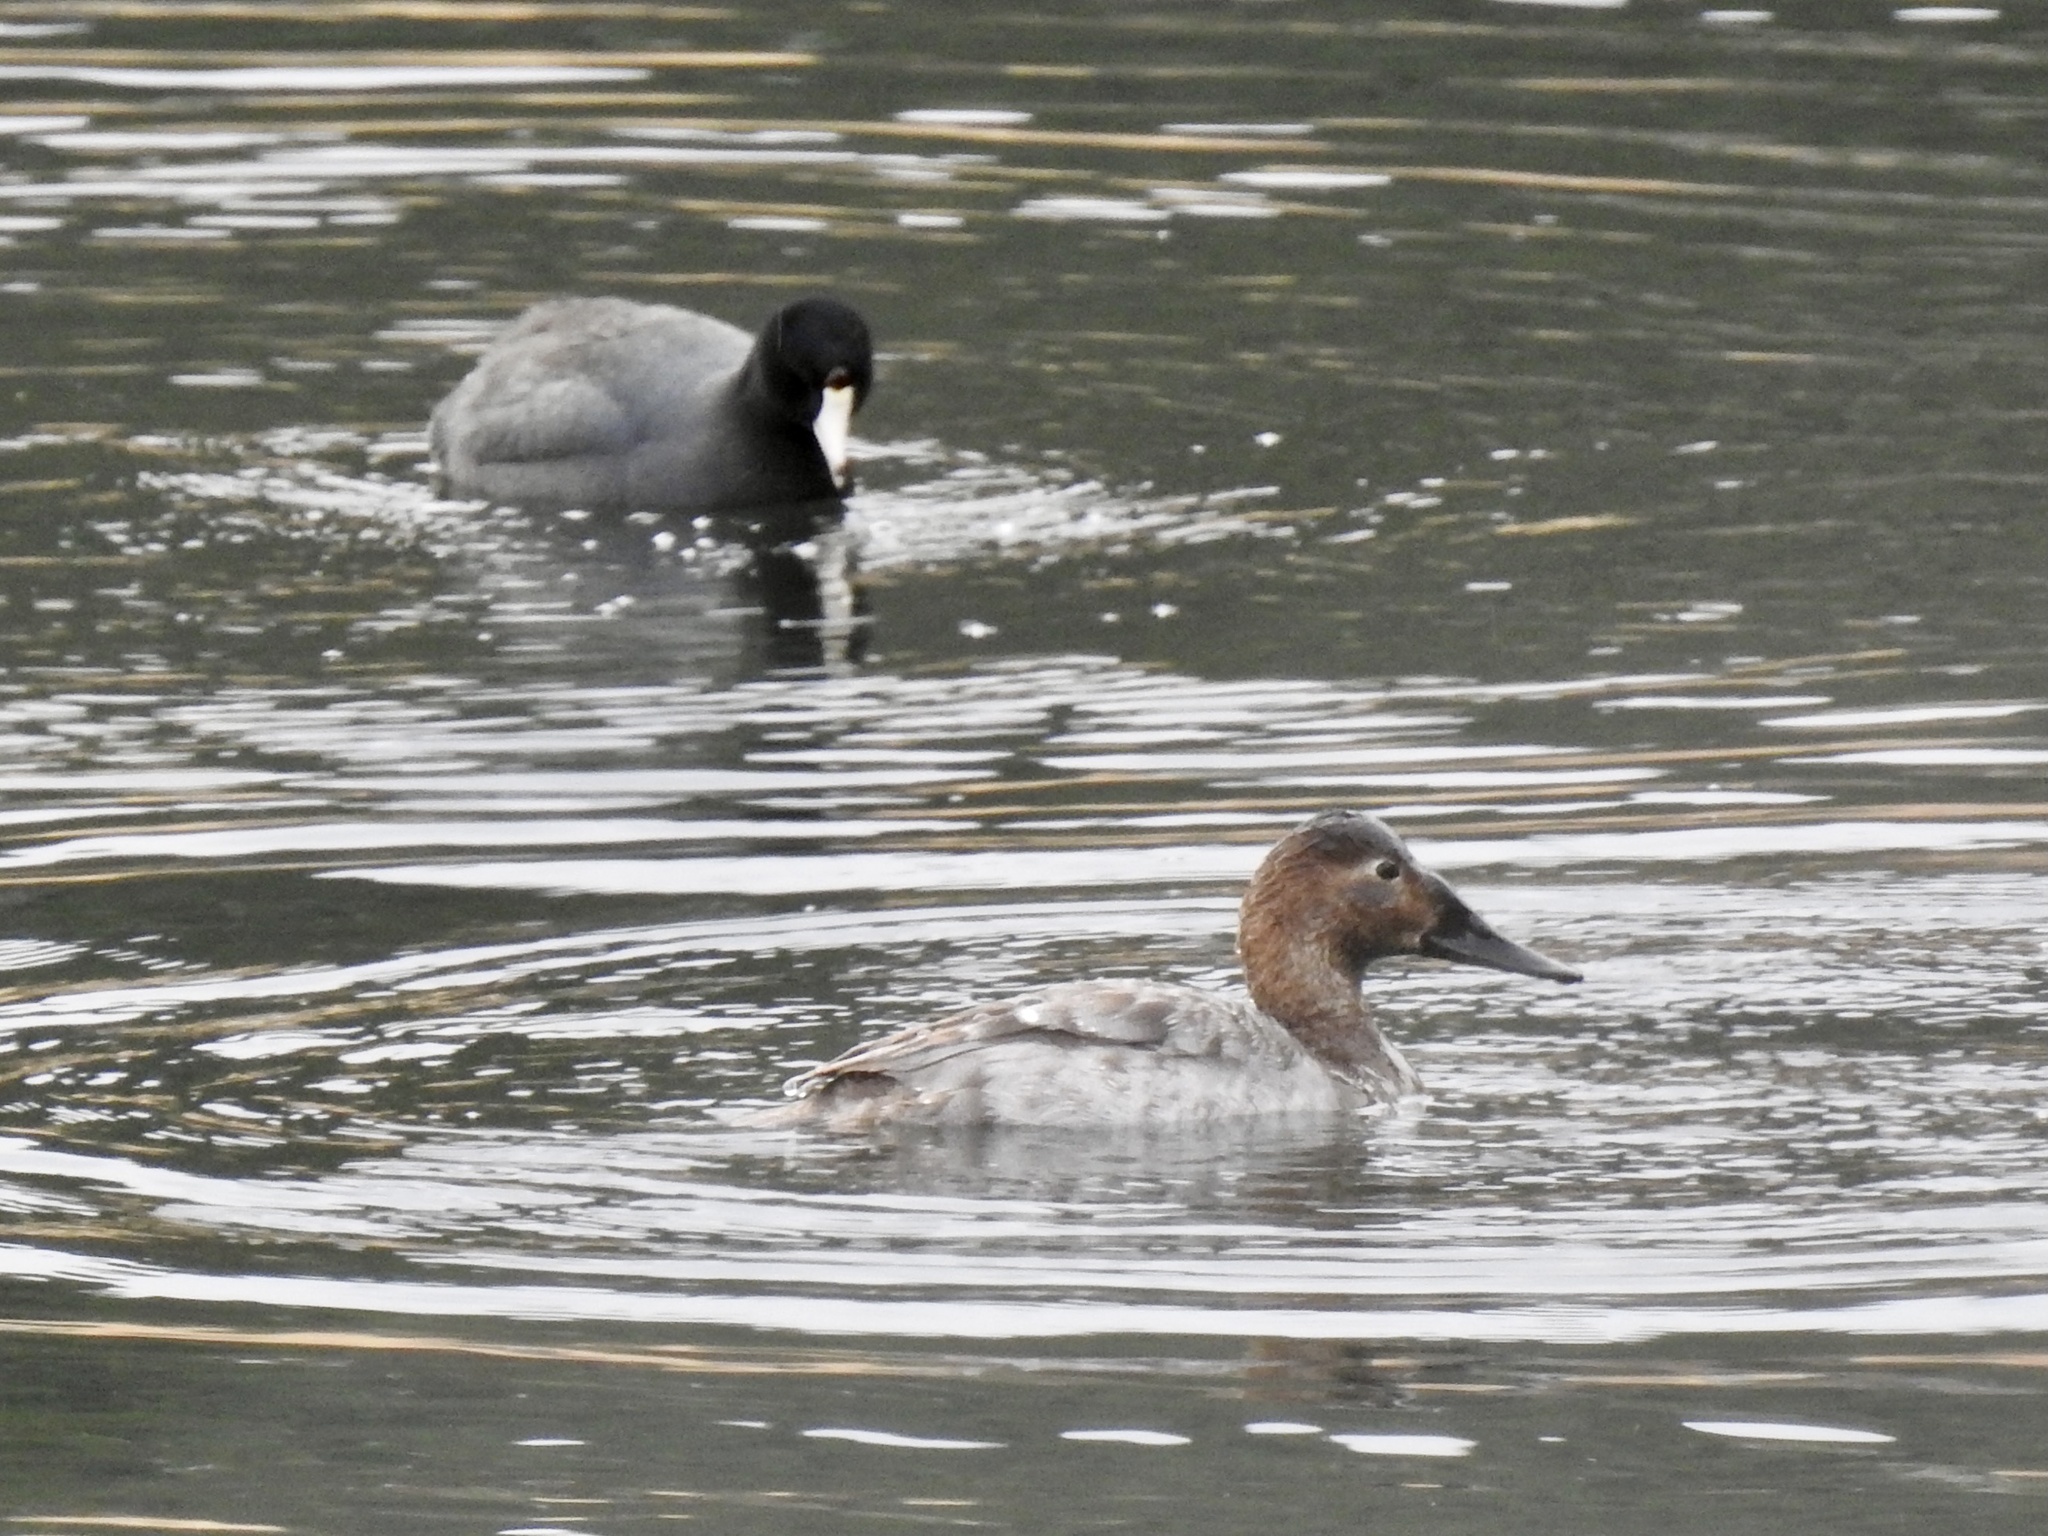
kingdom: Animalia
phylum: Chordata
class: Aves
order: Gruiformes
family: Rallidae
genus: Fulica
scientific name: Fulica americana
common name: American coot
